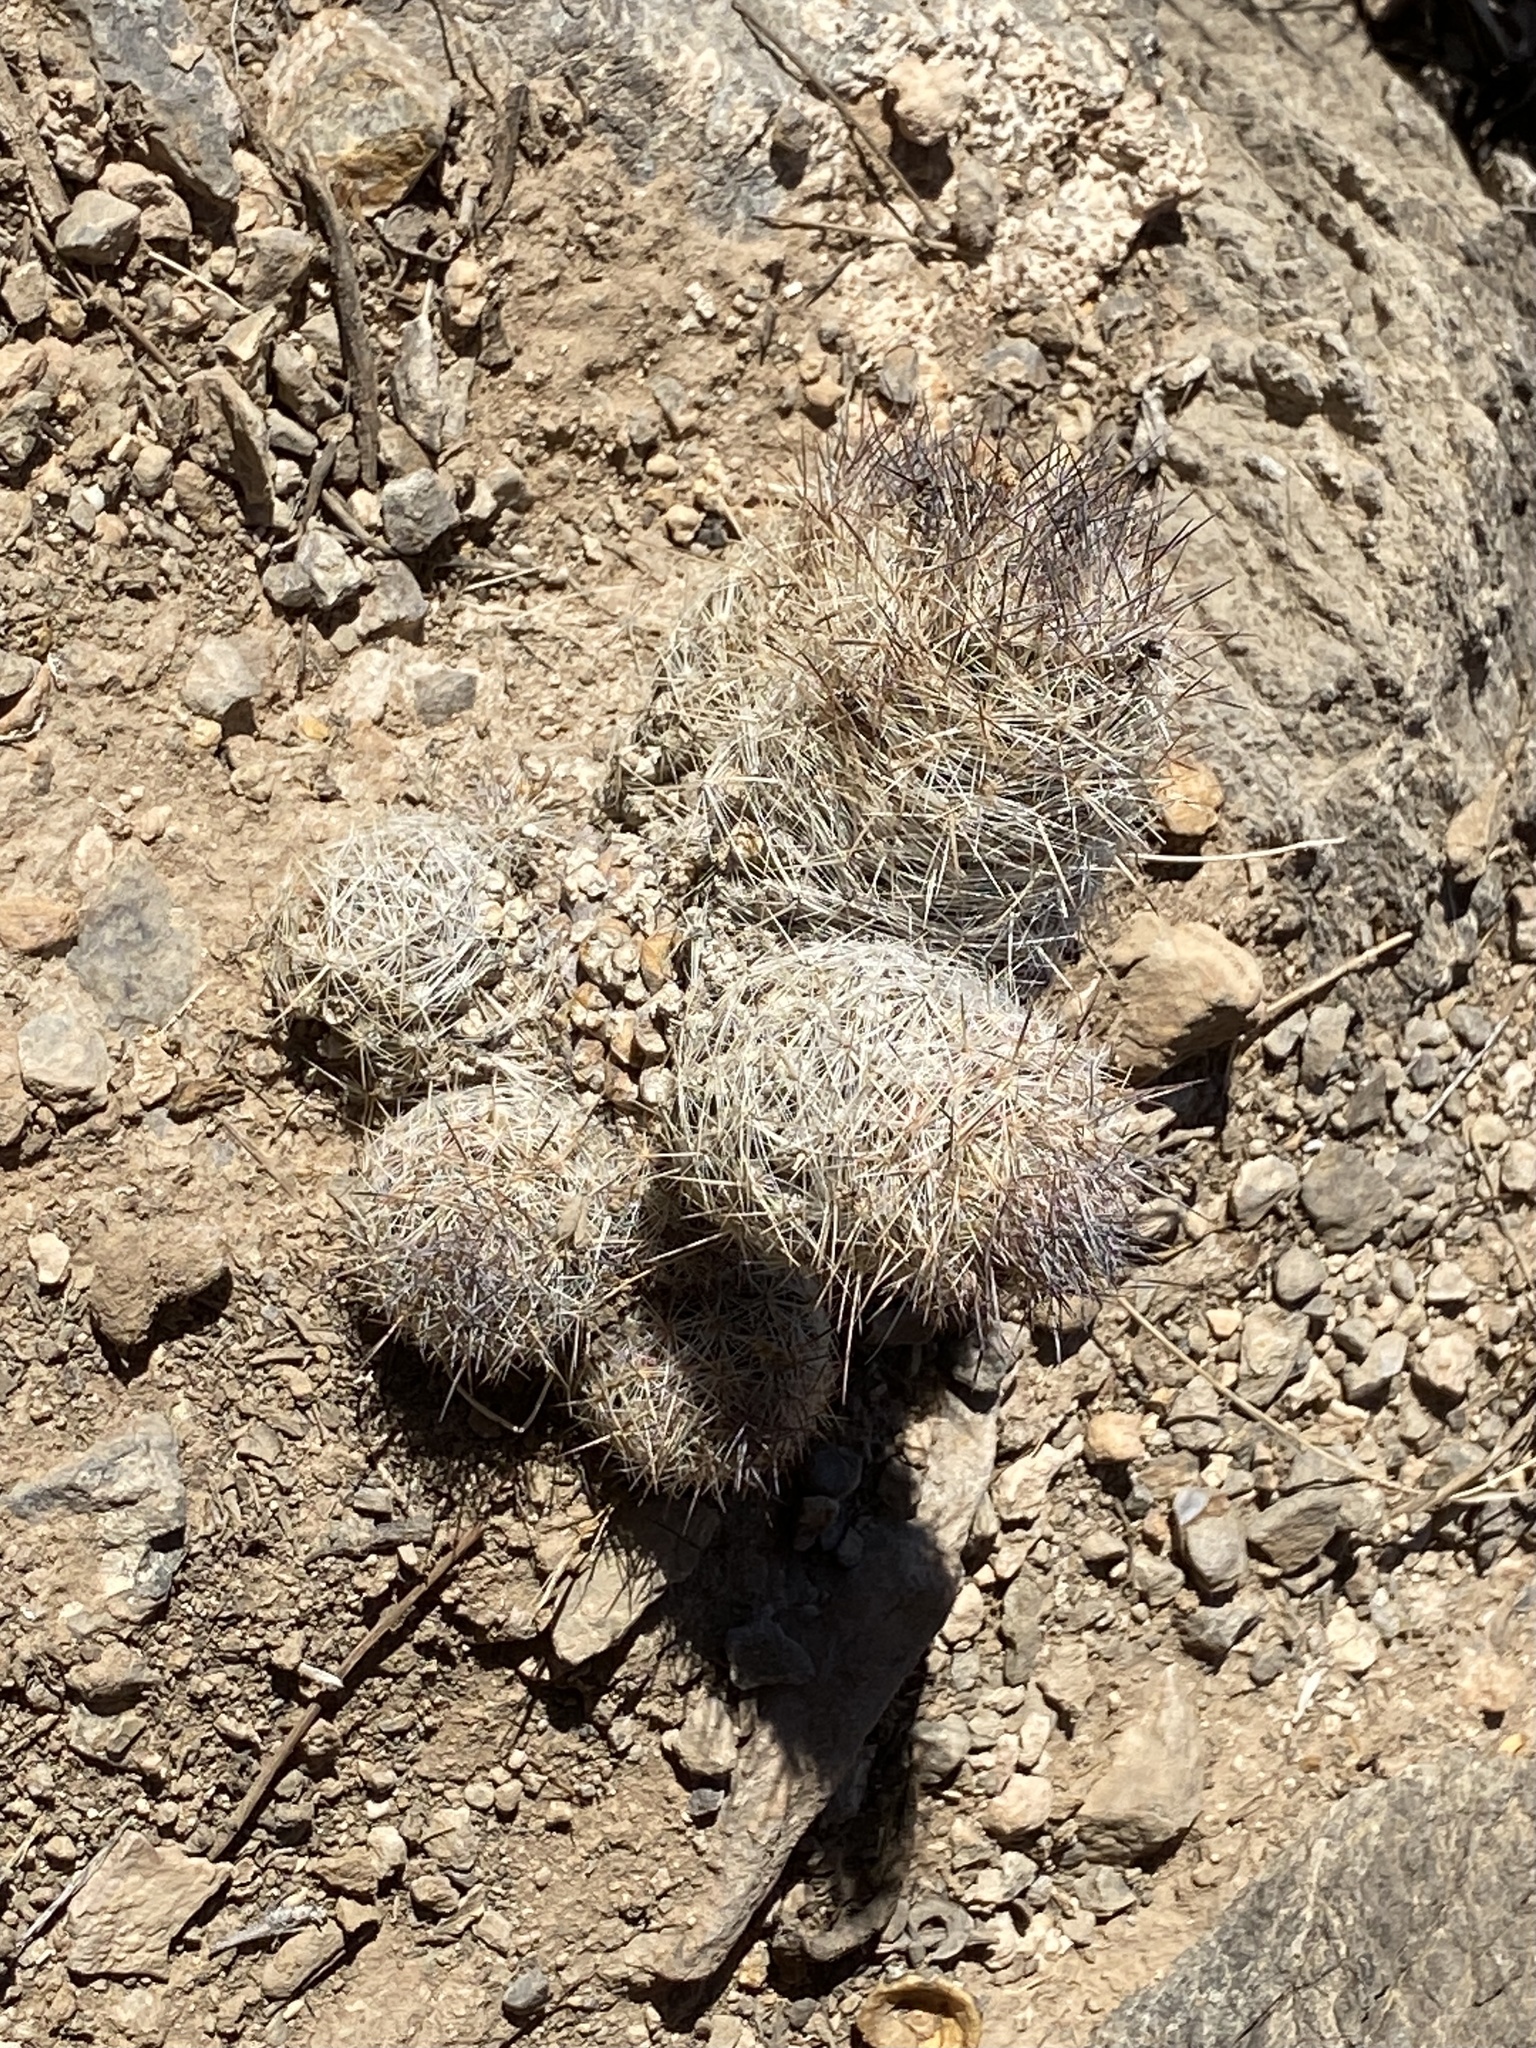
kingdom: Plantae
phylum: Tracheophyta
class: Magnoliopsida
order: Caryophyllales
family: Cactaceae
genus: Pelecyphora
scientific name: Pelecyphora tuberculosa
